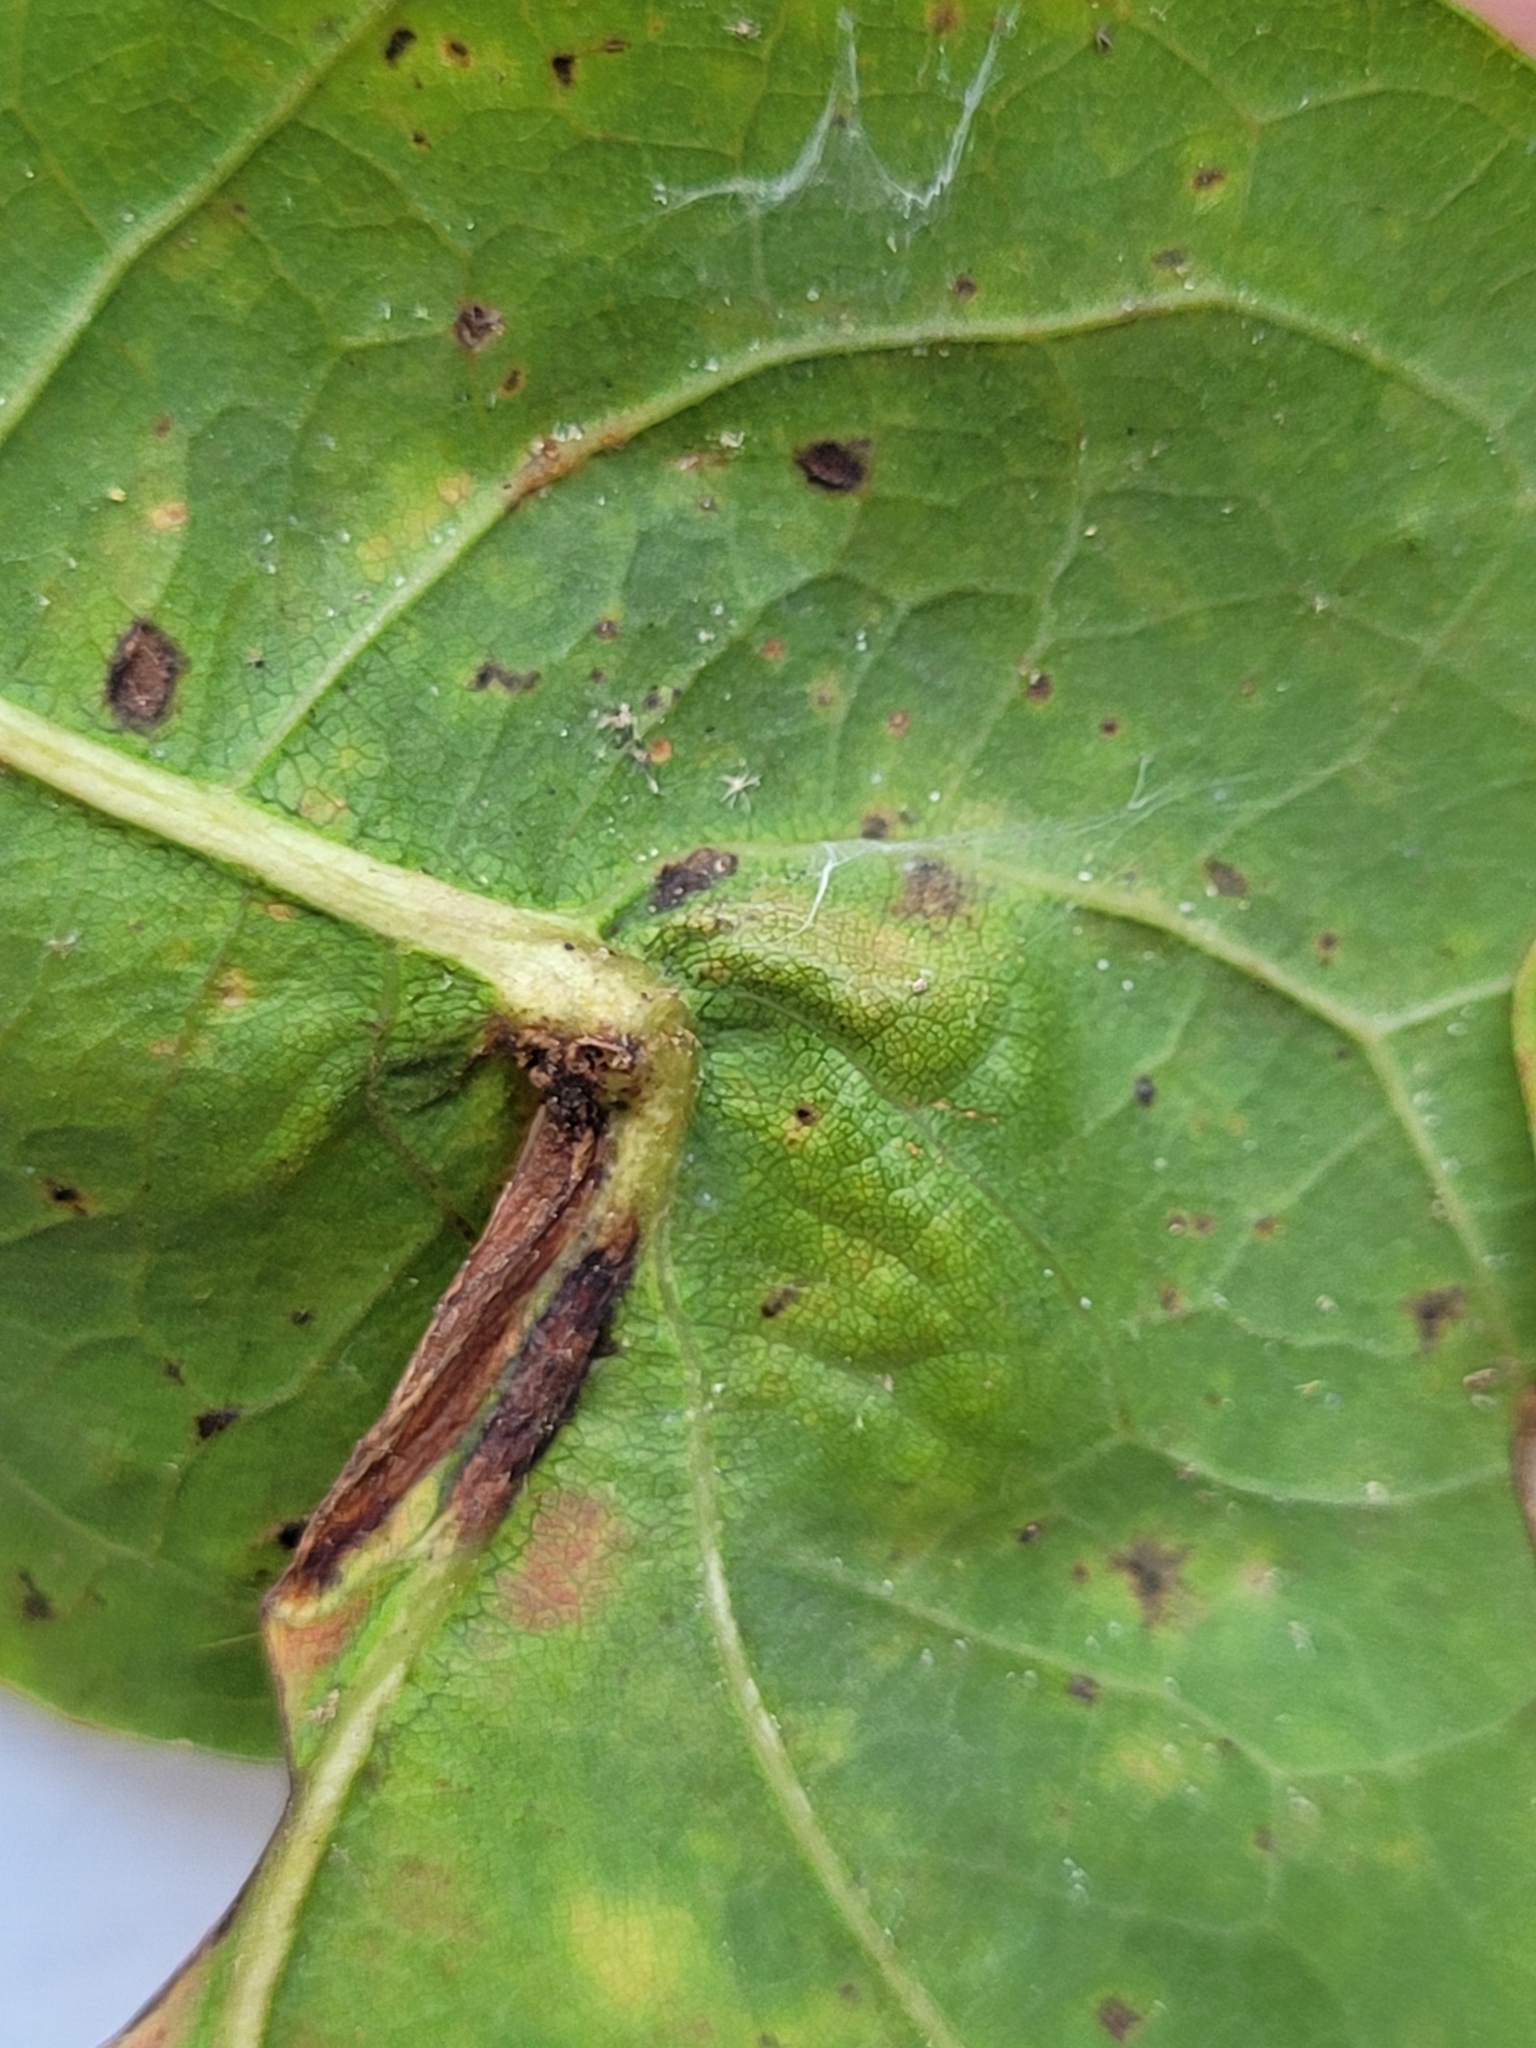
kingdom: Animalia
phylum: Arthropoda
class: Insecta
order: Hymenoptera
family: Cynipidae
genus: Andricus
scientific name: Andricus
